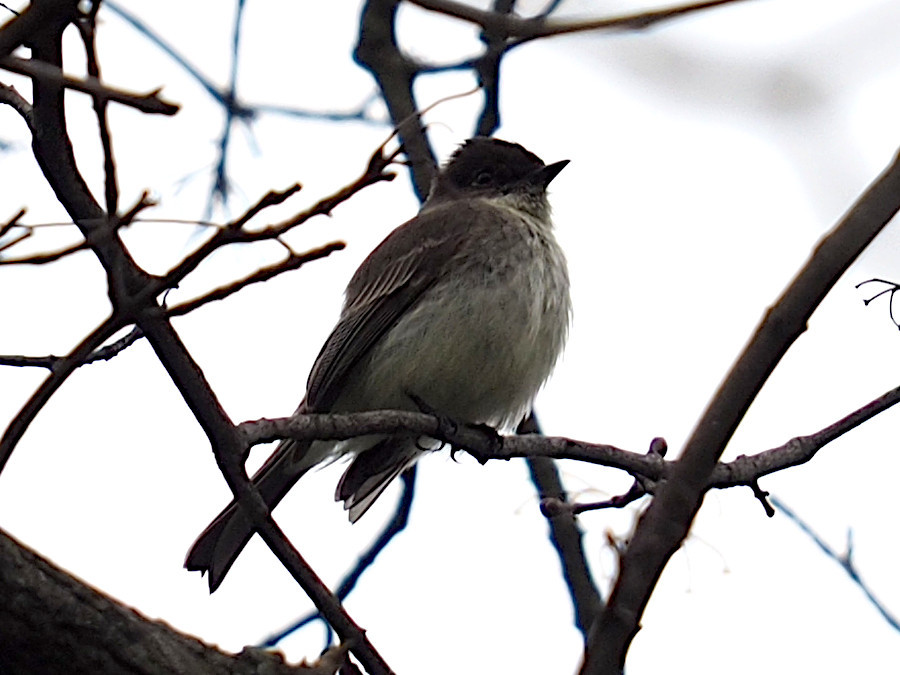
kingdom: Animalia
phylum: Chordata
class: Aves
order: Passeriformes
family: Tyrannidae
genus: Sayornis
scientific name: Sayornis phoebe
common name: Eastern phoebe
